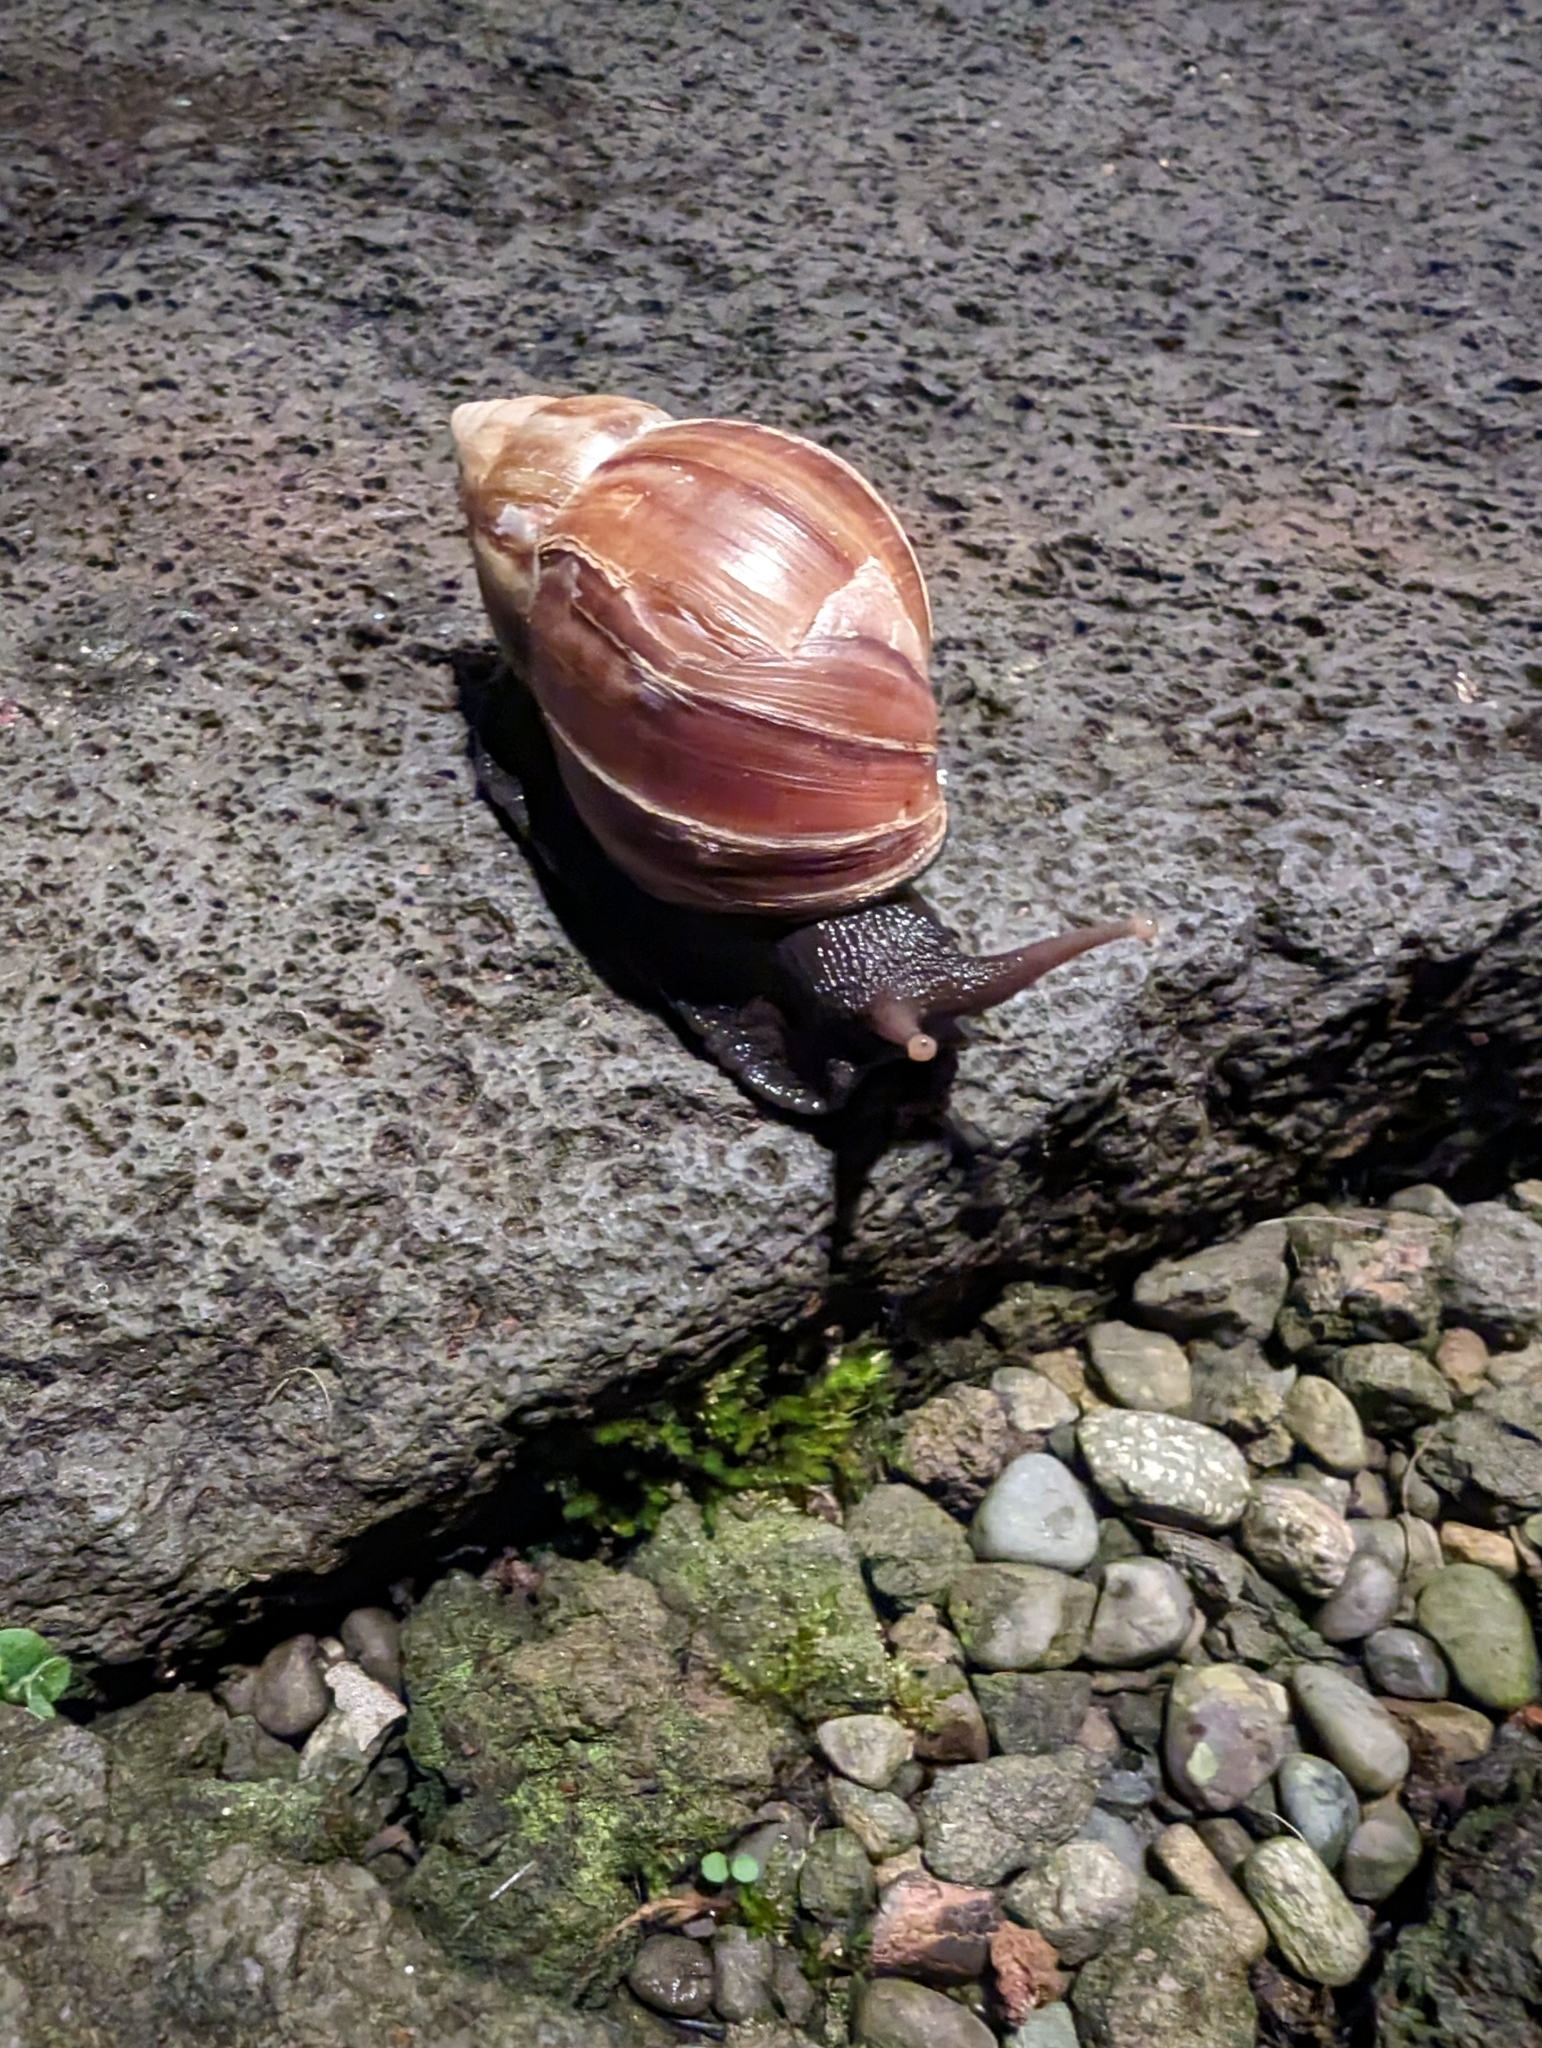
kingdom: Animalia
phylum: Mollusca
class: Gastropoda
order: Stylommatophora
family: Achatinidae
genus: Lissachatina
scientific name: Lissachatina fulica
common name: Giant african snail
